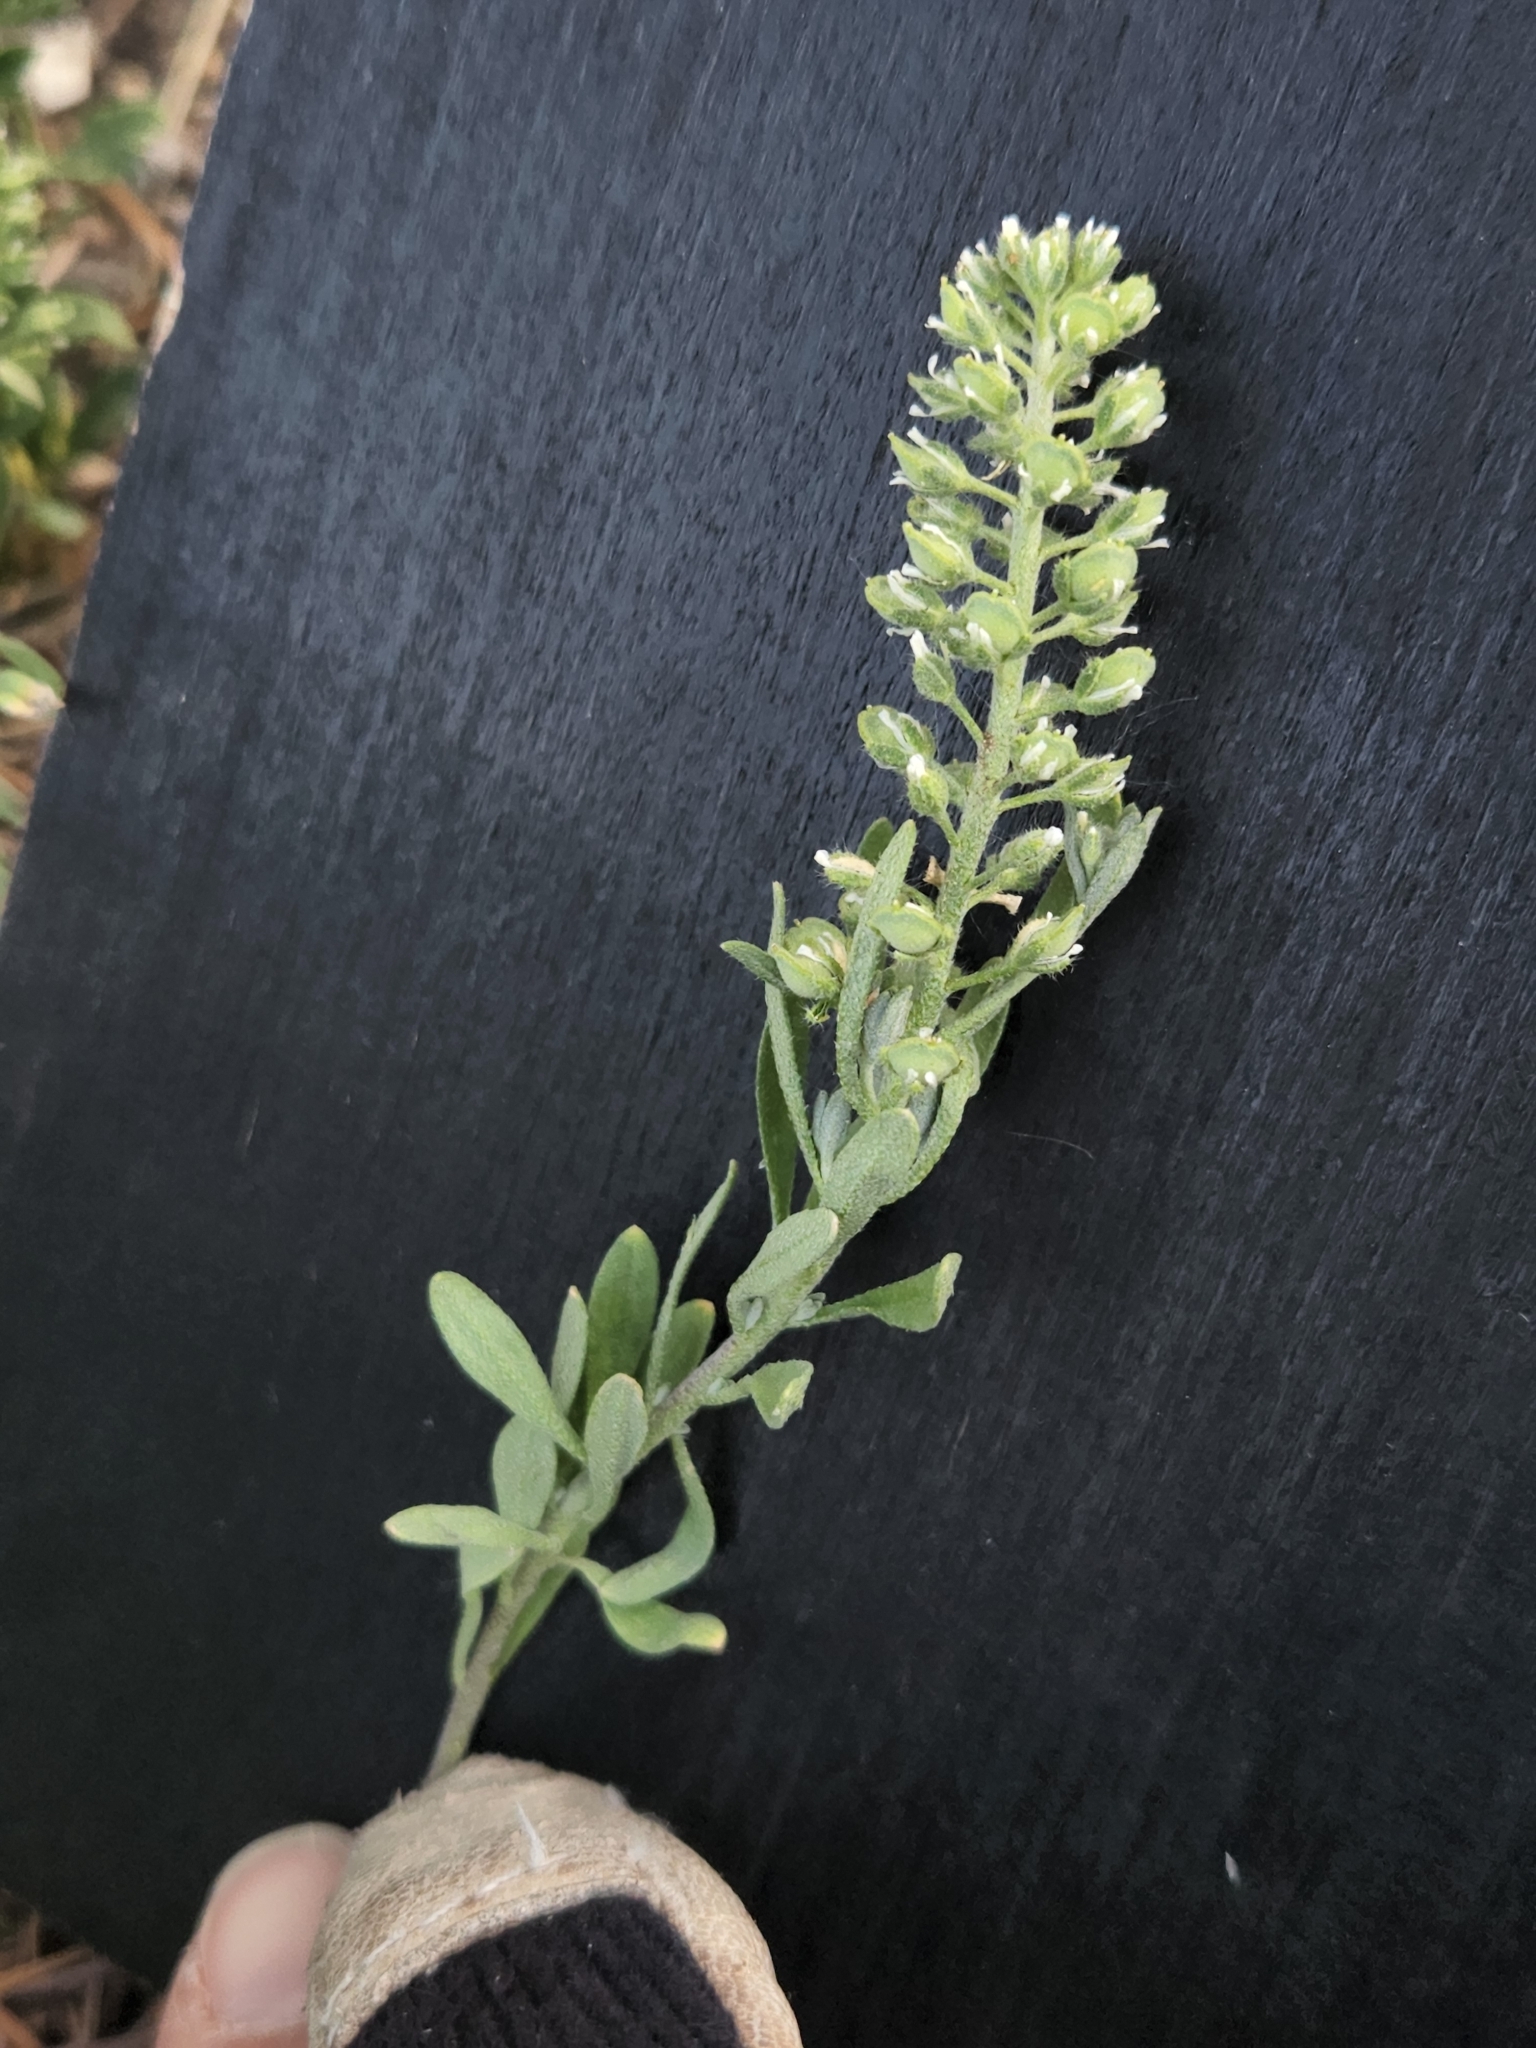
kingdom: Plantae
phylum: Tracheophyta
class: Magnoliopsida
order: Brassicales
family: Brassicaceae
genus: Alyssum
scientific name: Alyssum alyssoides
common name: Small alison
